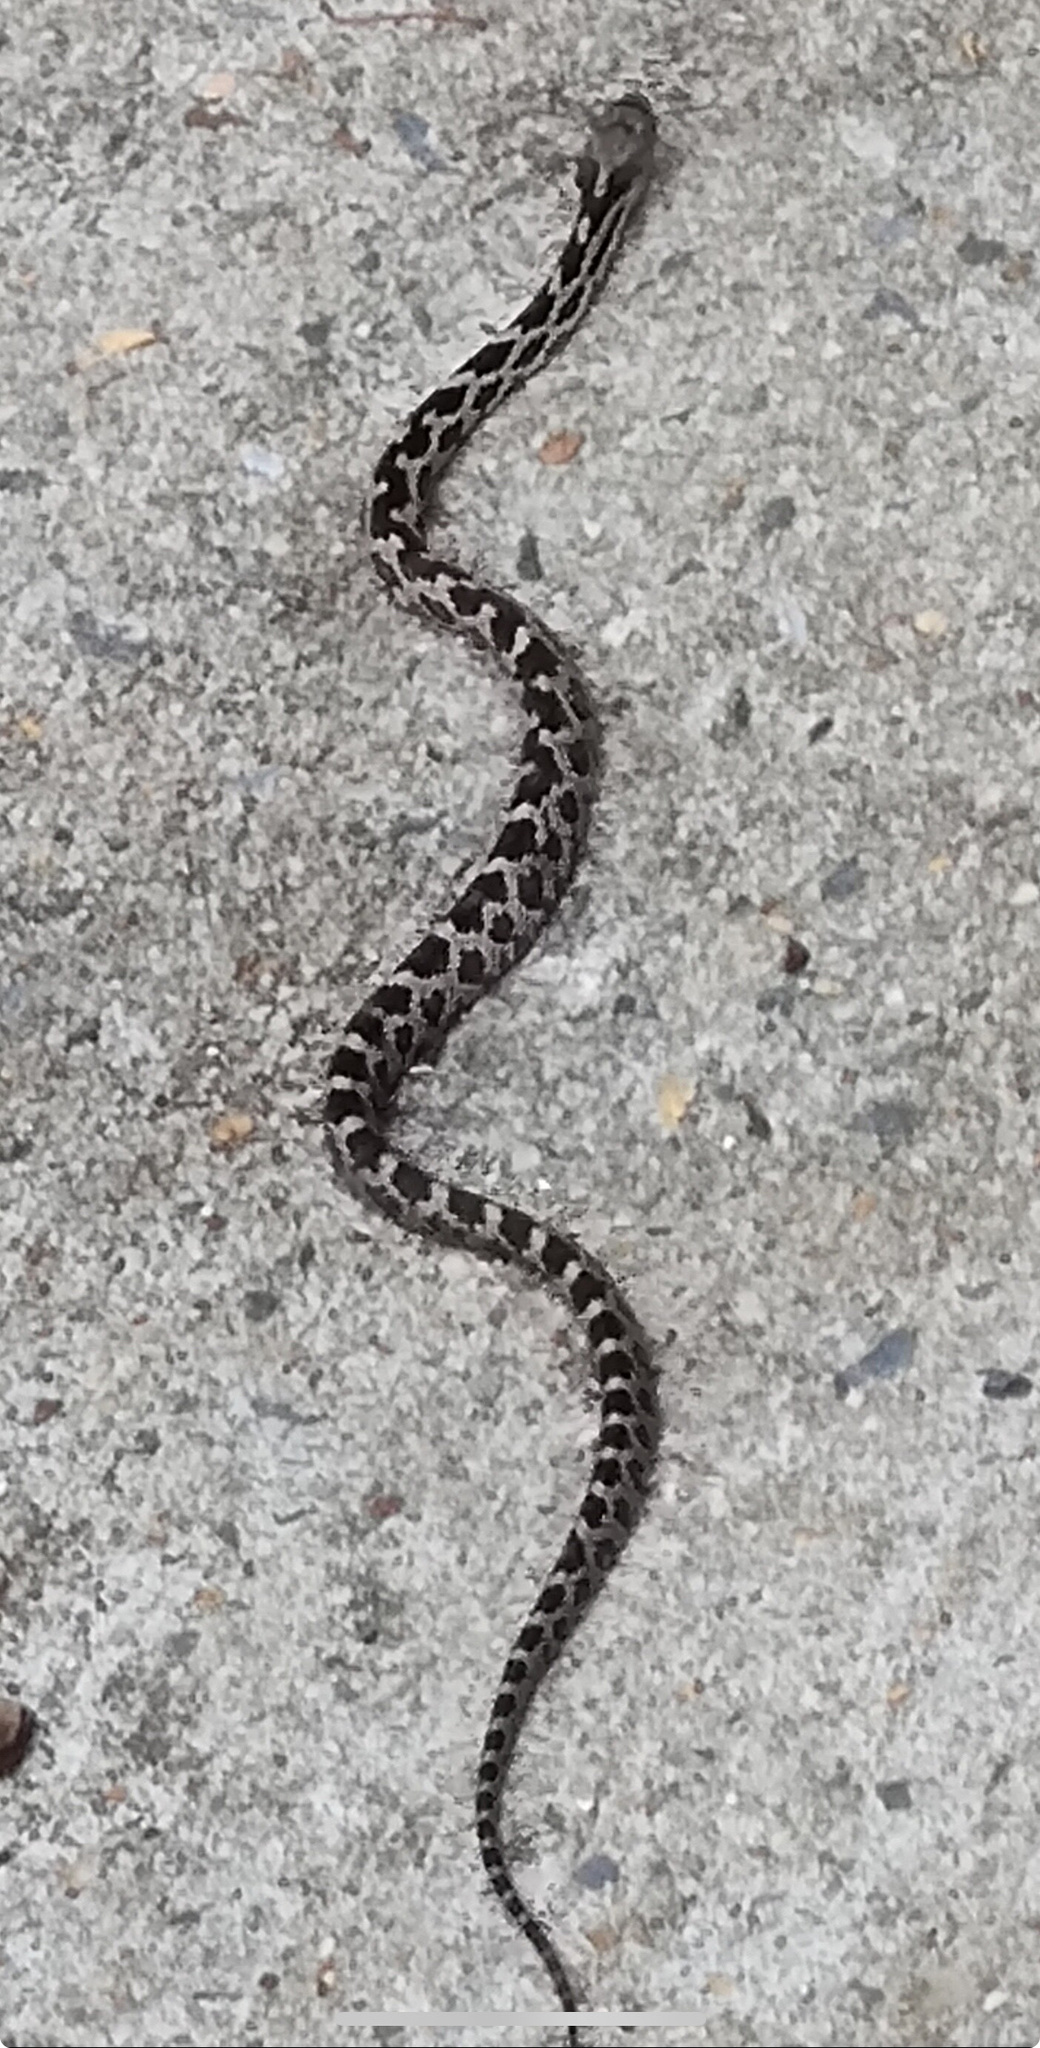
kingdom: Animalia
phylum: Chordata
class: Squamata
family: Colubridae
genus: Pantherophis
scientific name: Pantherophis
